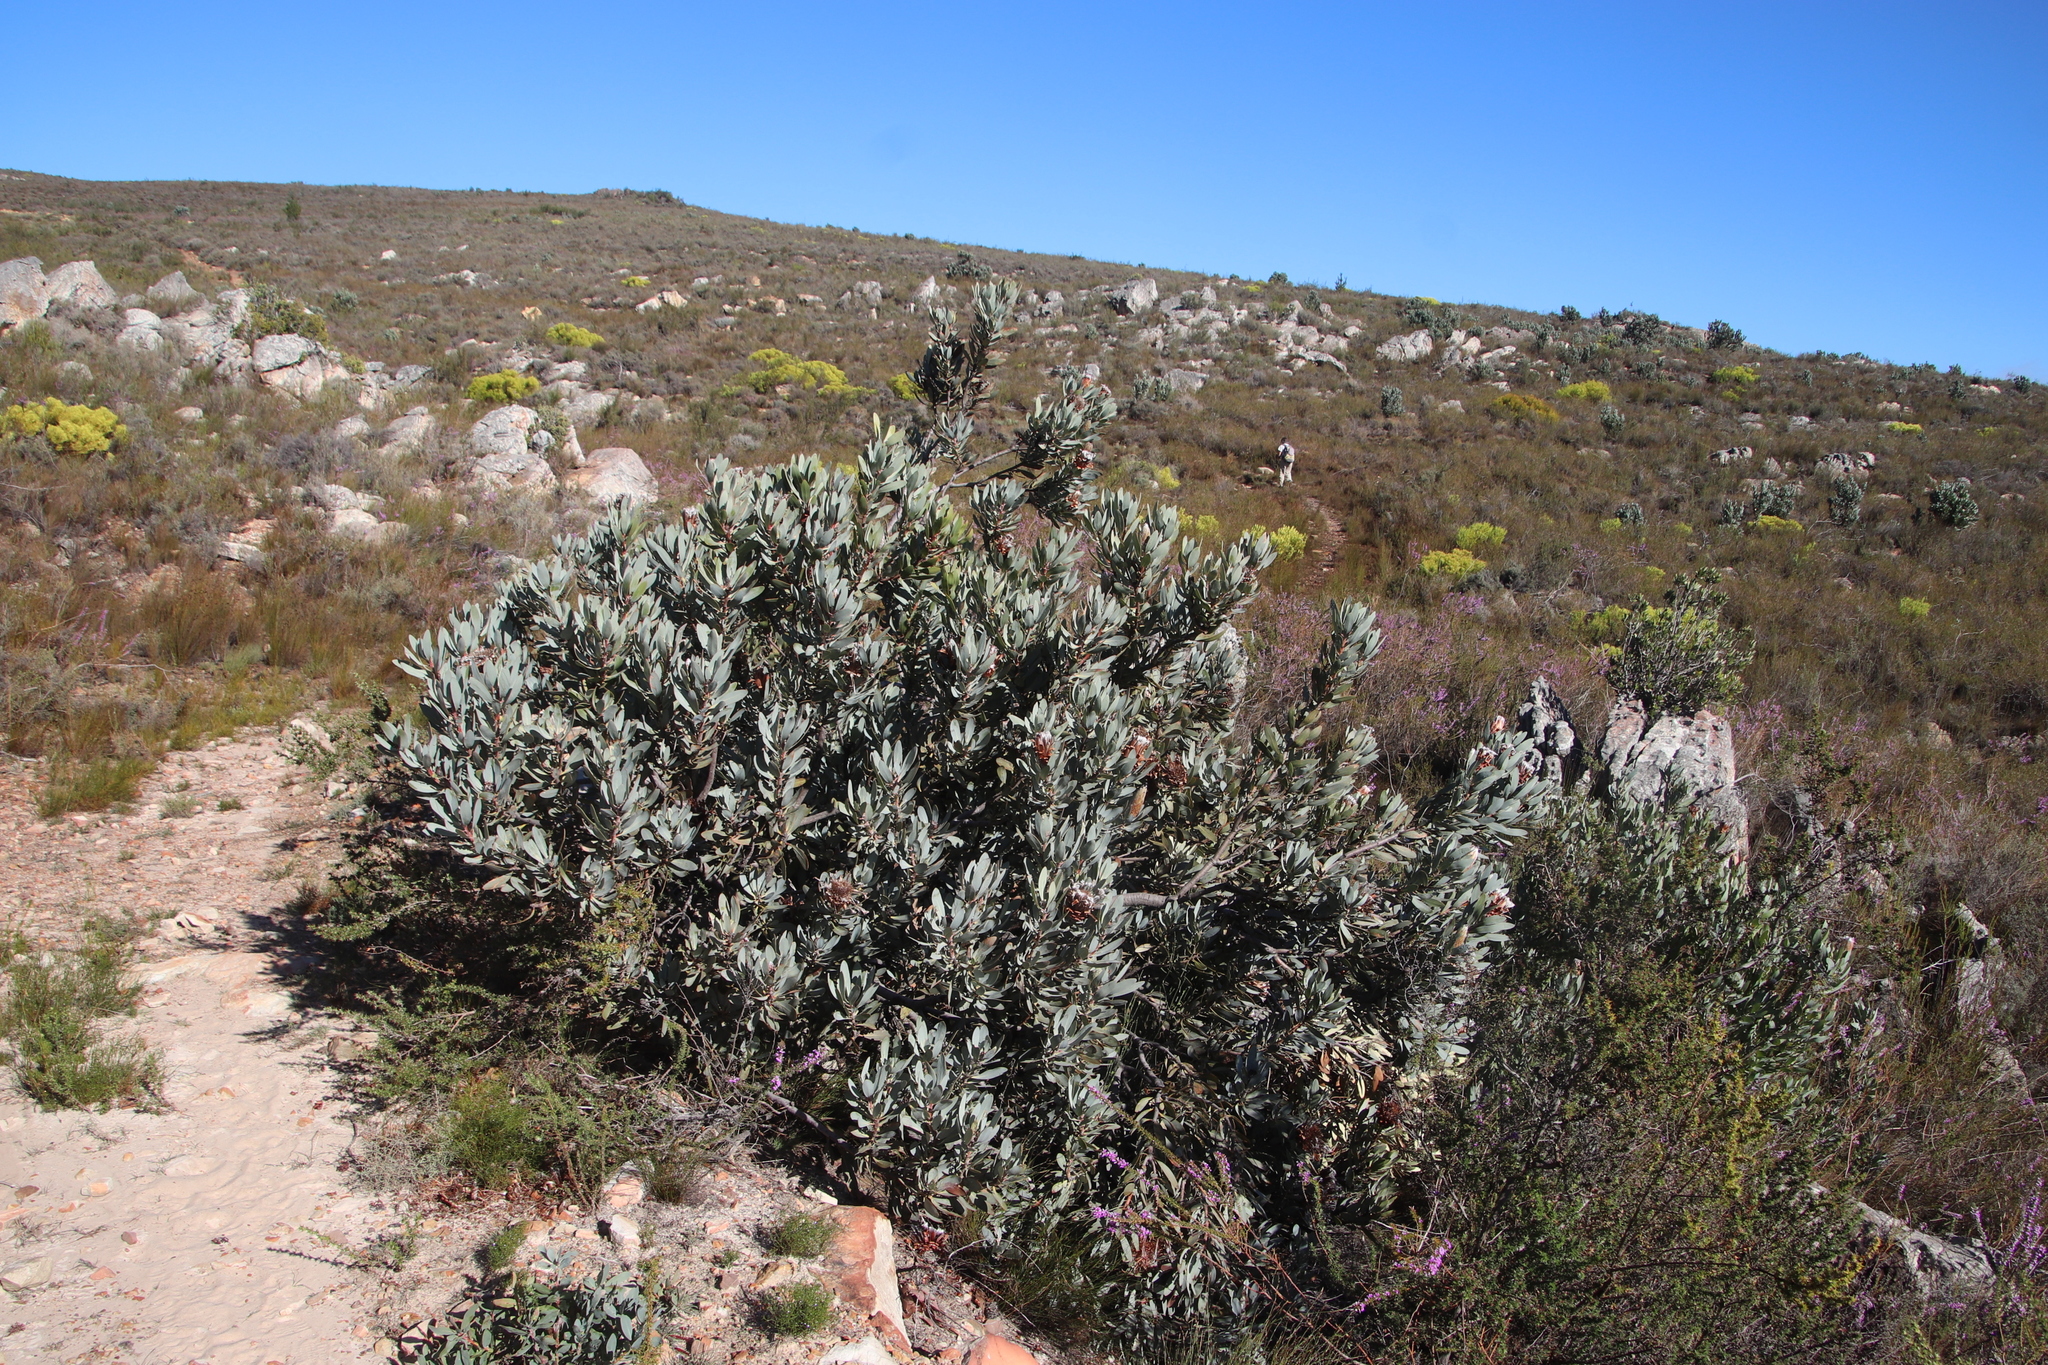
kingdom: Plantae
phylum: Tracheophyta
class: Magnoliopsida
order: Proteales
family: Proteaceae
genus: Protea
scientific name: Protea laurifolia
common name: Grey-leaf sugarbsh
